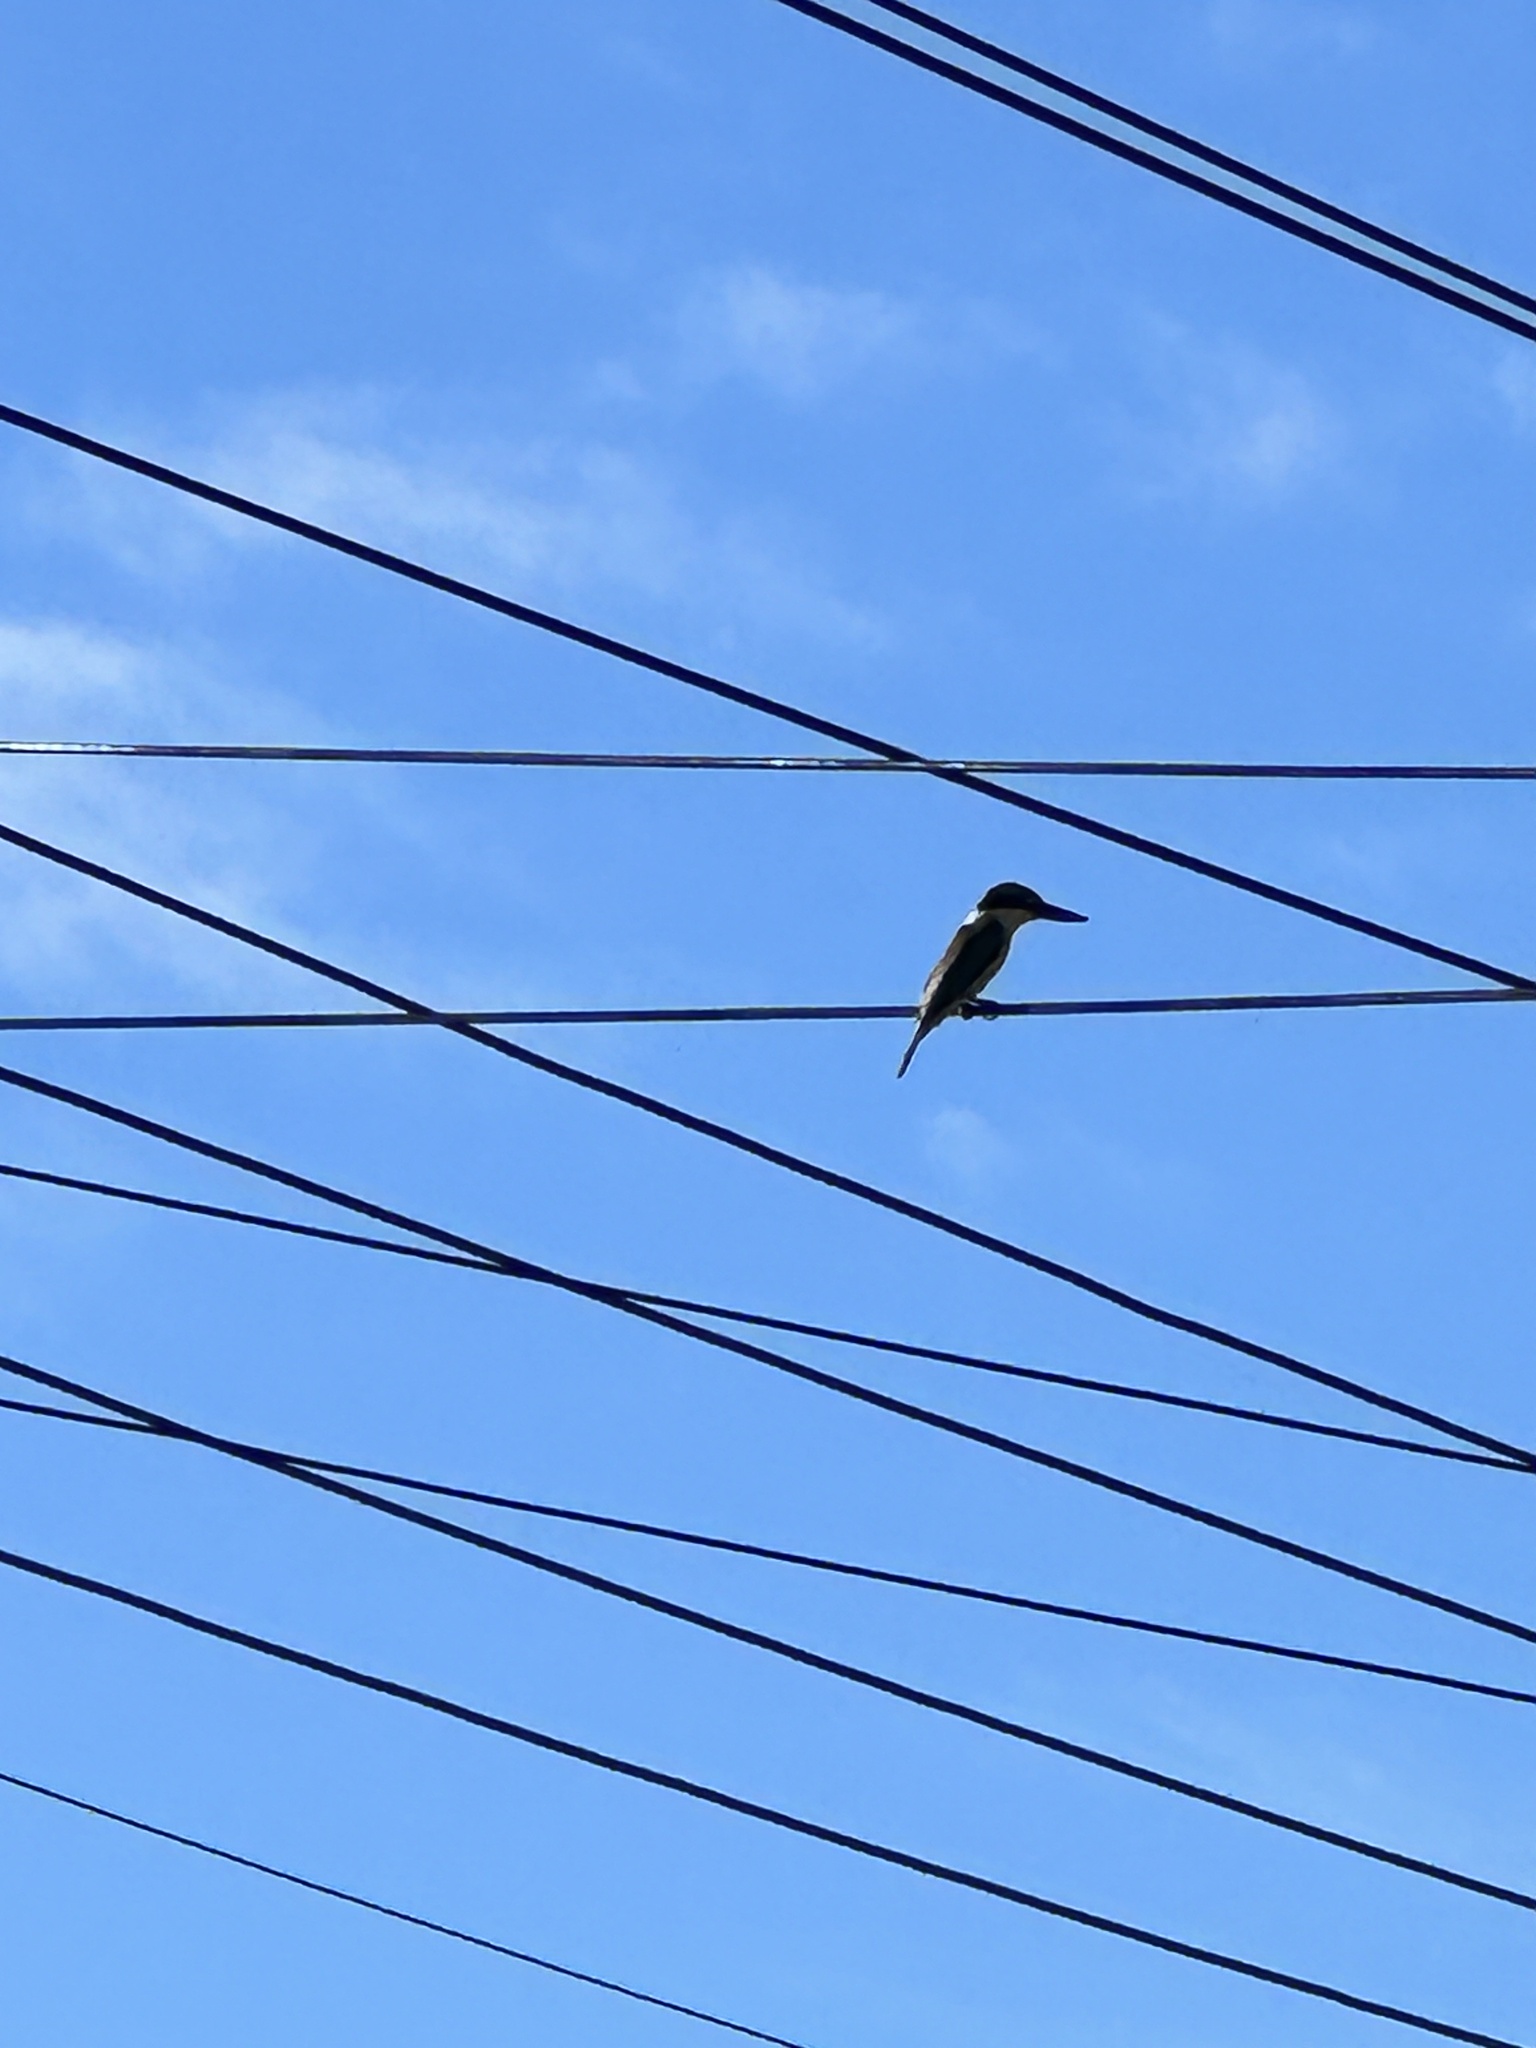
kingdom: Animalia
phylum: Chordata
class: Aves
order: Coraciiformes
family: Alcedinidae
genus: Todiramphus
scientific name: Todiramphus sanctus
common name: Sacred kingfisher
